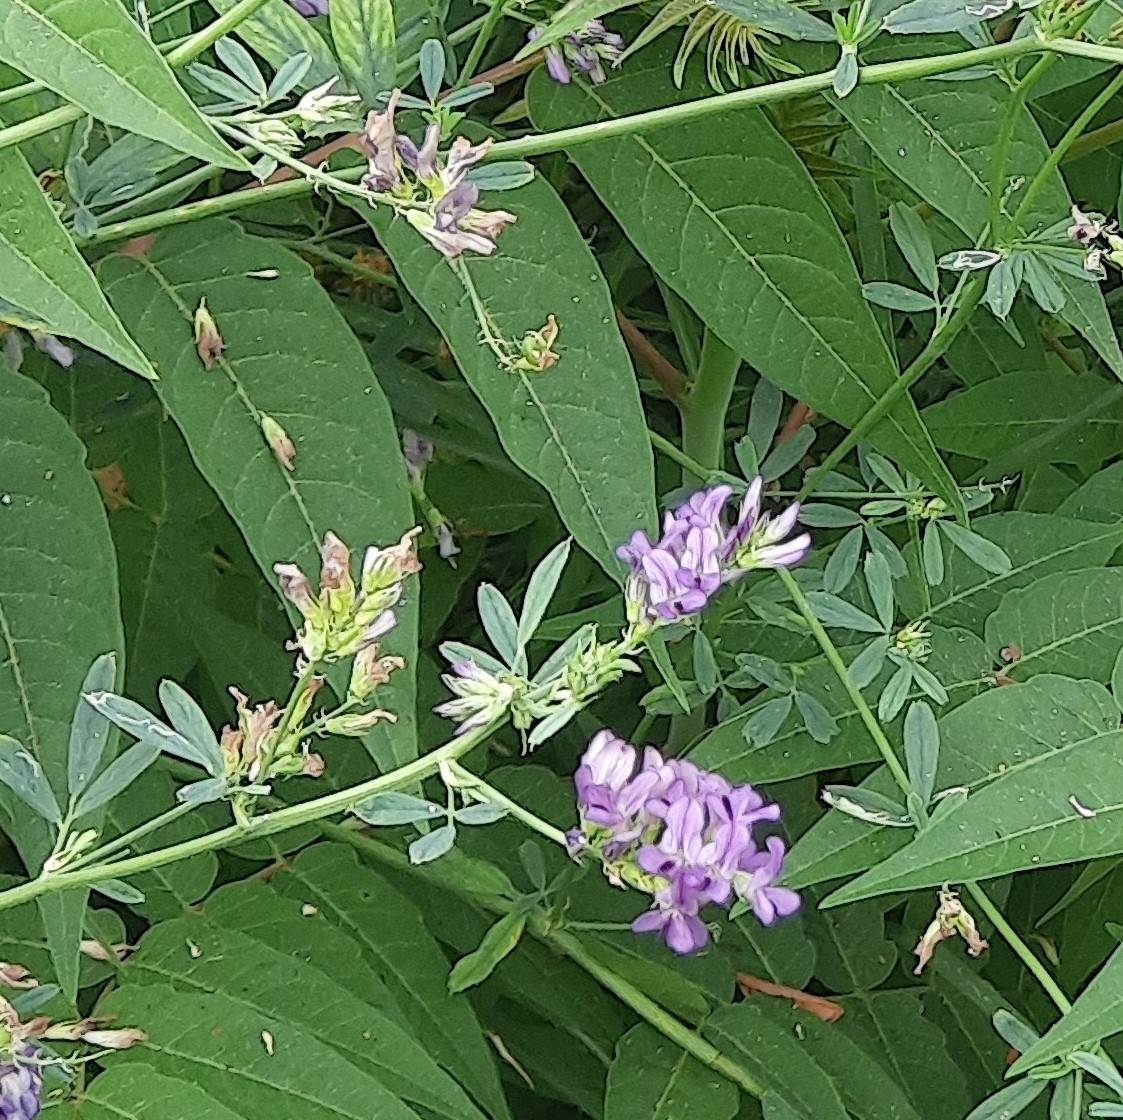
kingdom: Plantae
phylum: Tracheophyta
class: Magnoliopsida
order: Fabales
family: Fabaceae
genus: Medicago
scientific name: Medicago sativa
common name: Alfalfa
